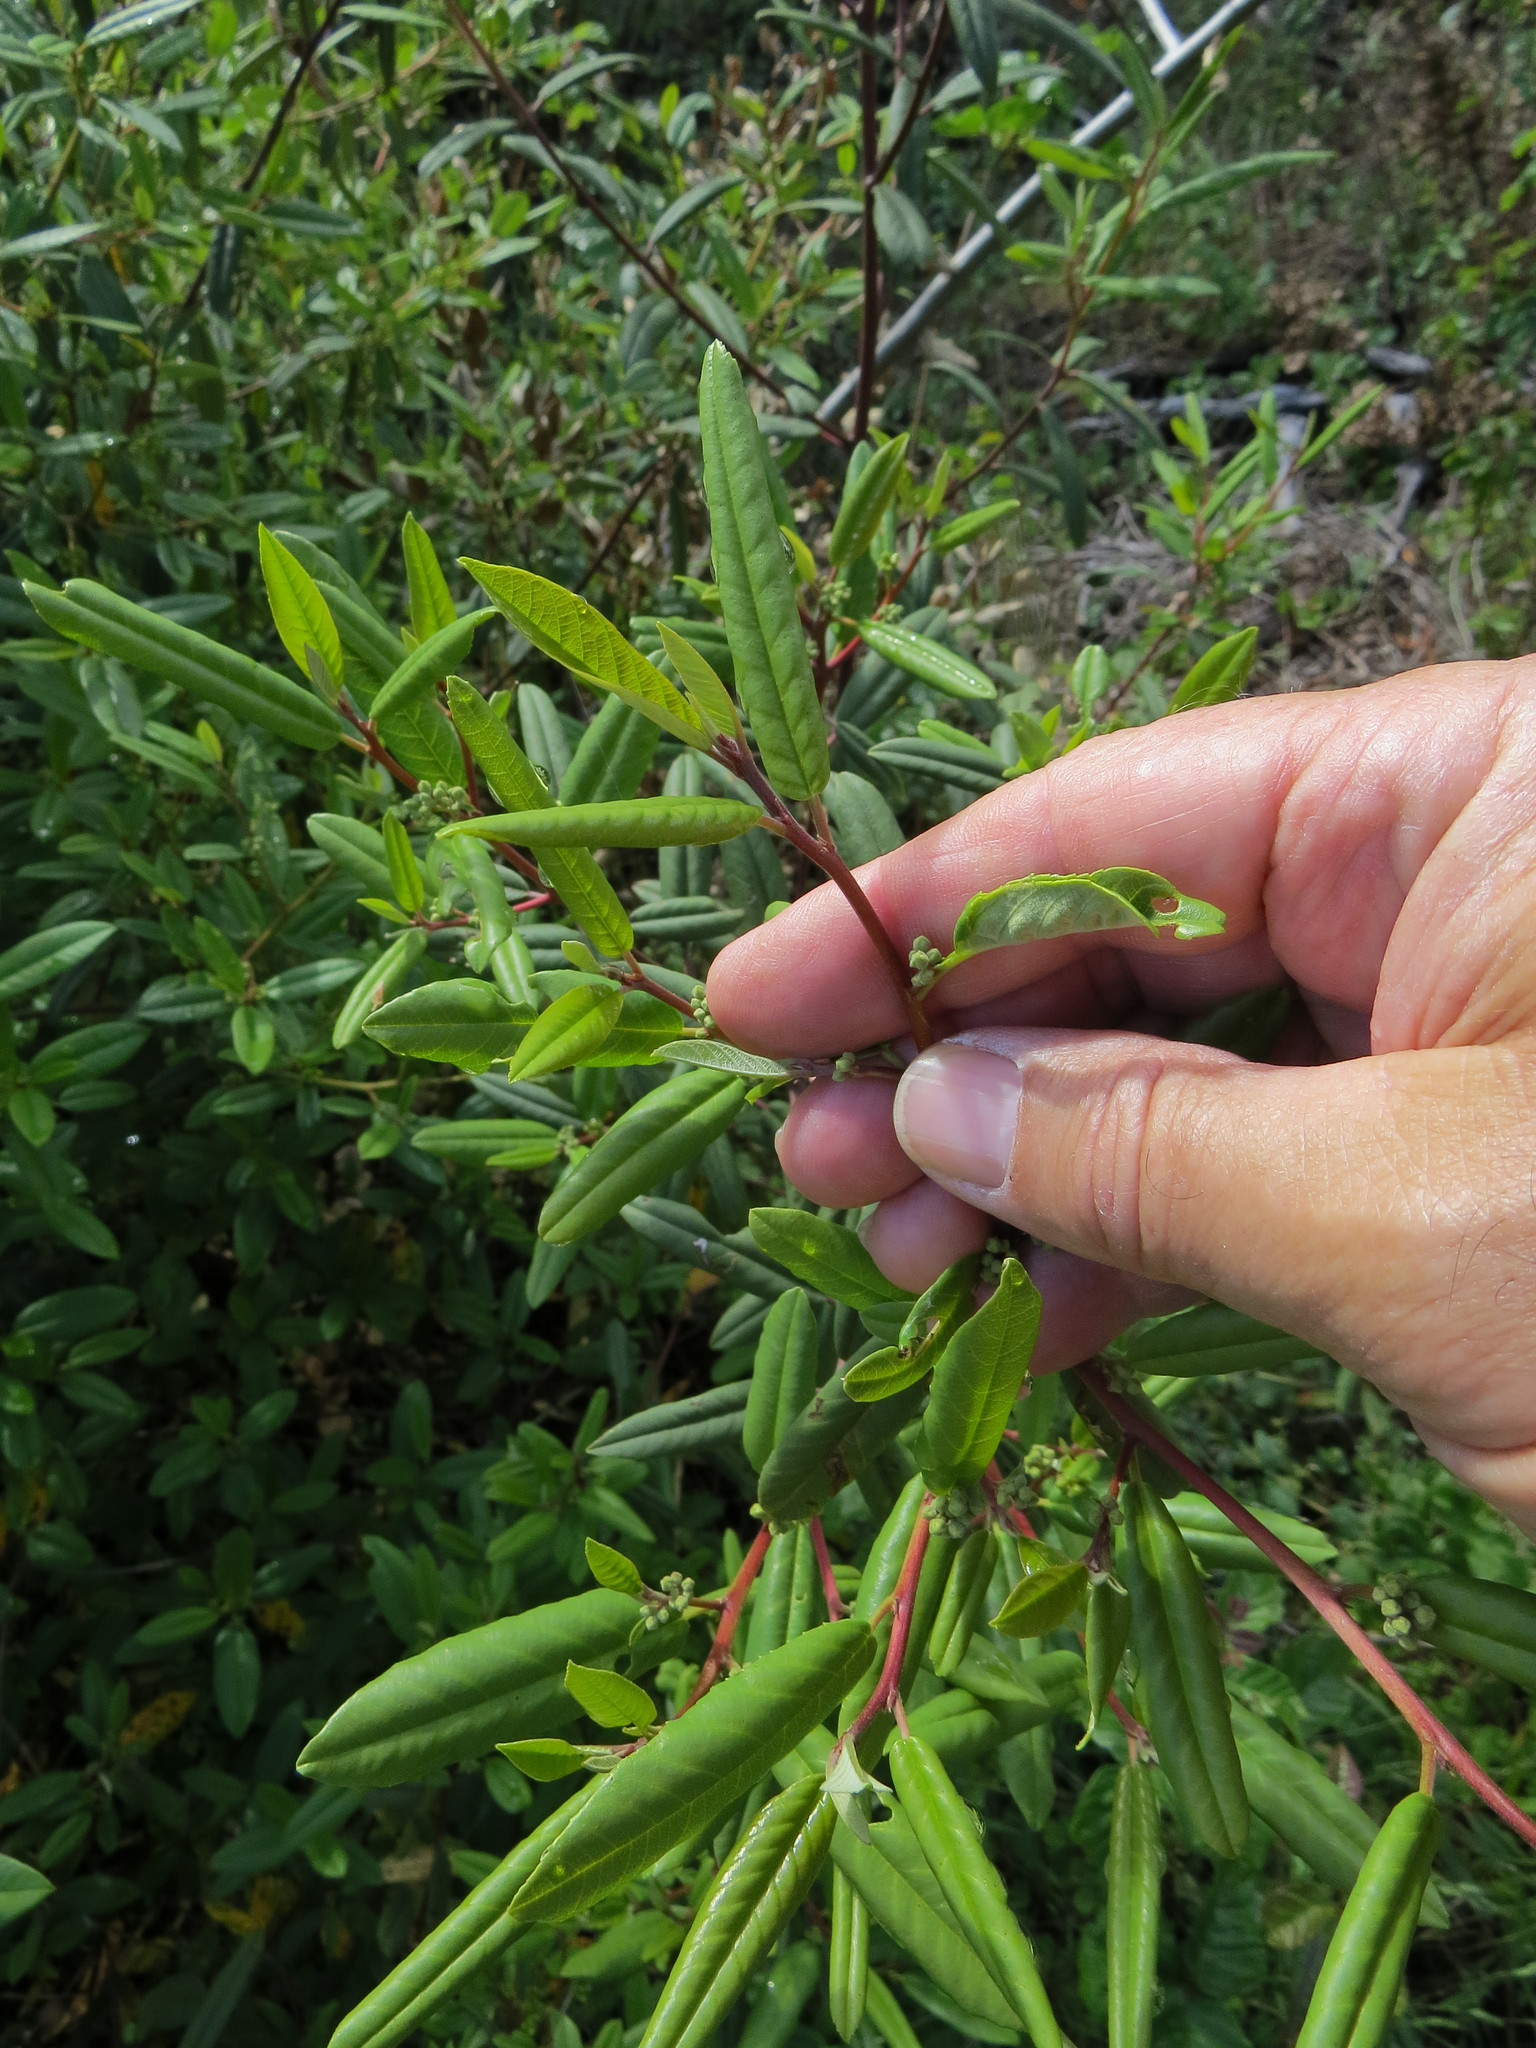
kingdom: Animalia
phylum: Arthropoda
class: Insecta
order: Lepidoptera
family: Cosmopterigidae
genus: Sorhagenia
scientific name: Sorhagenia nimbosus
